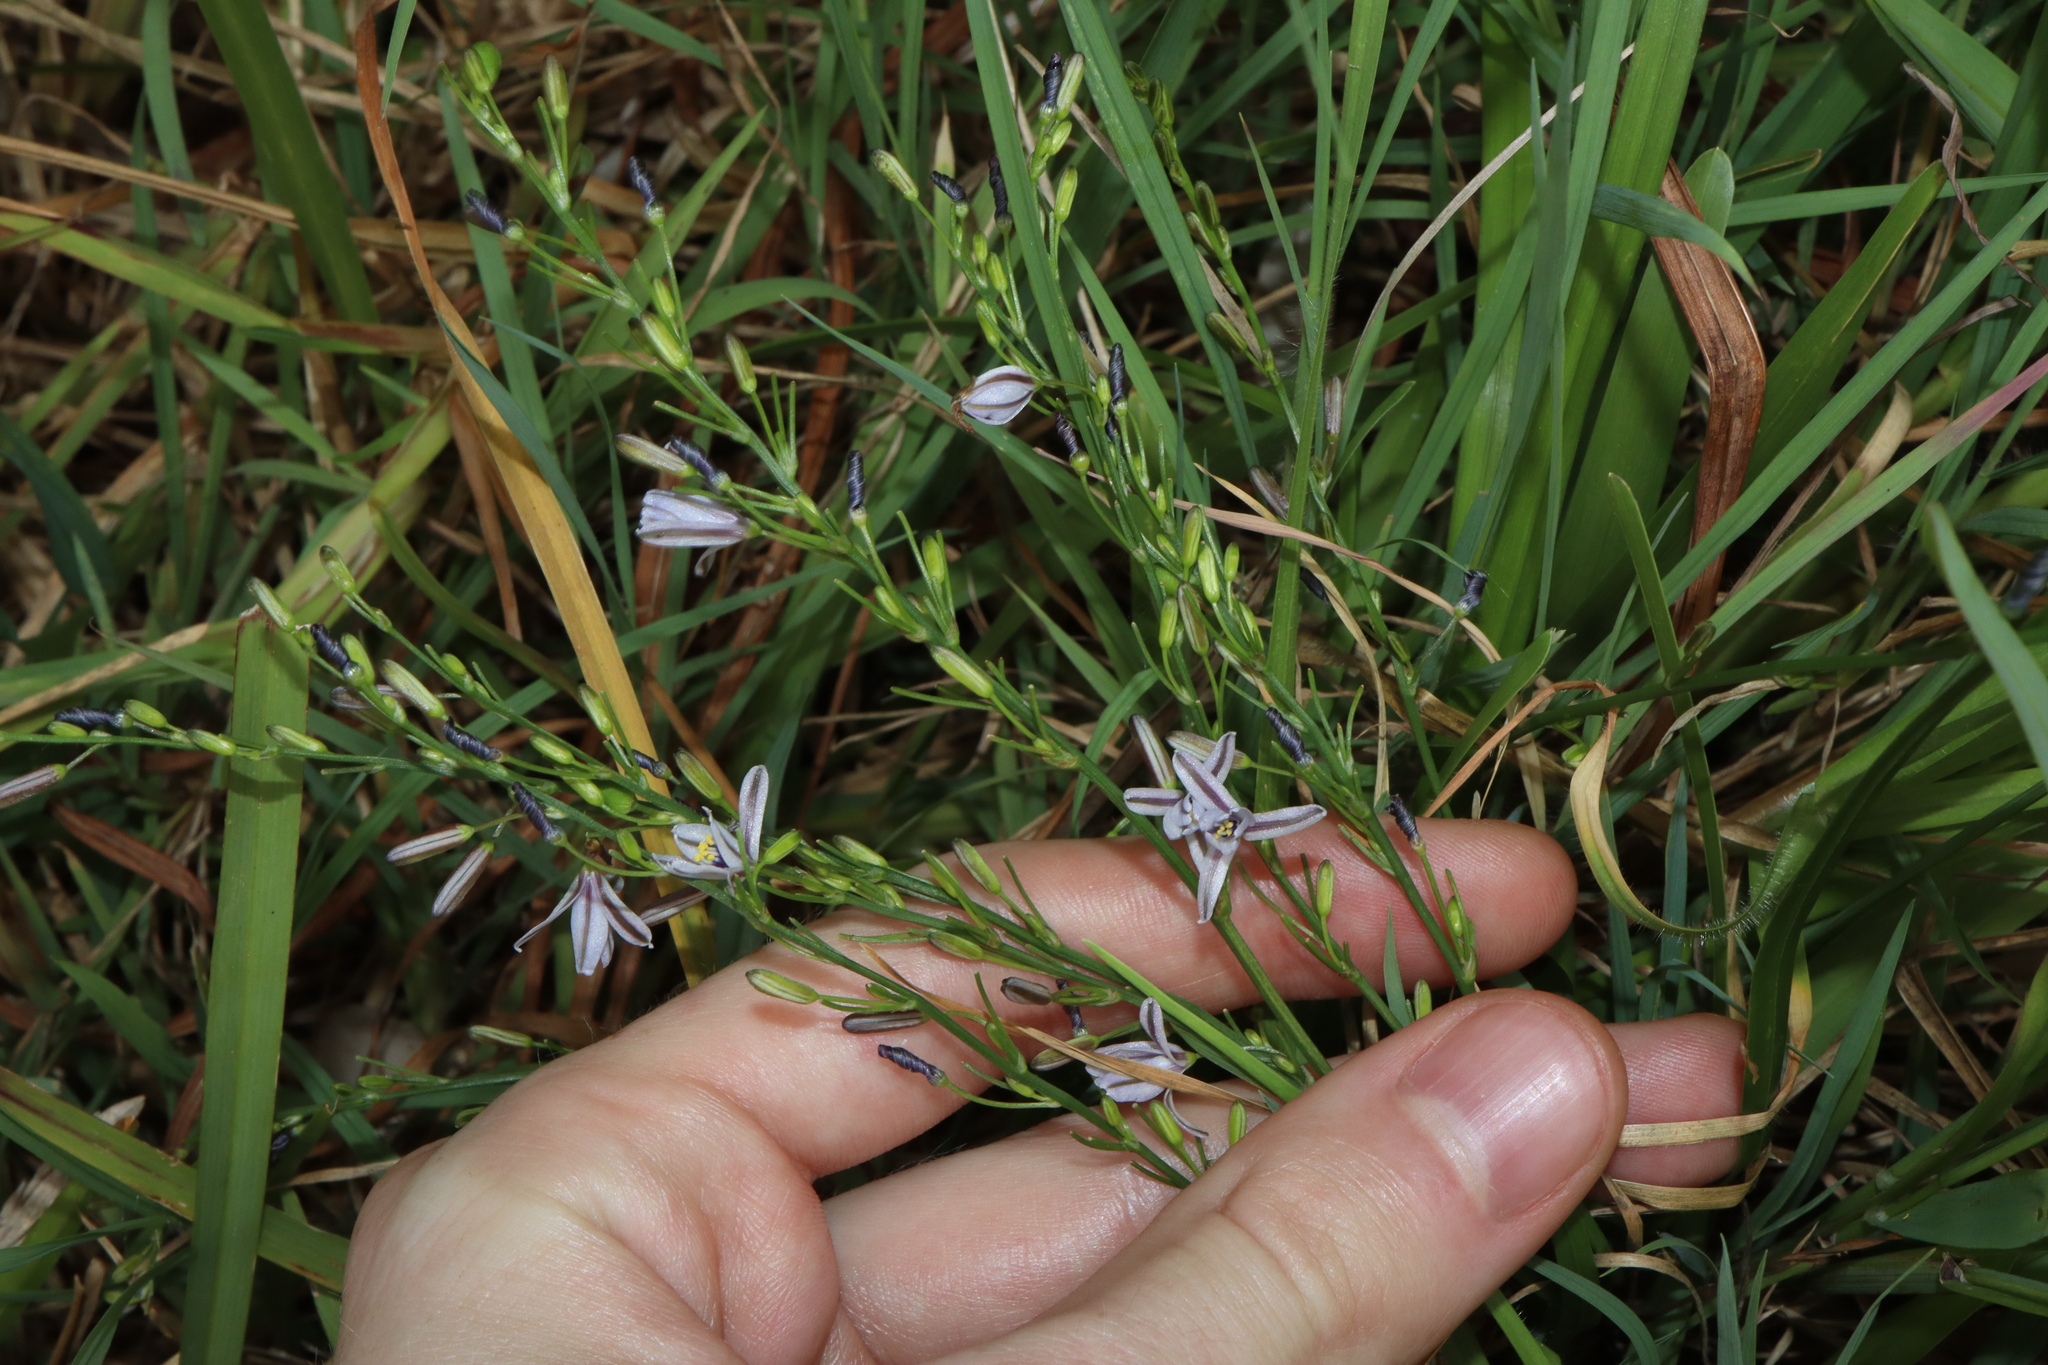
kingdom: Plantae
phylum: Tracheophyta
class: Liliopsida
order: Asparagales
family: Asphodelaceae
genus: Caesia
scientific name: Caesia parviflora
